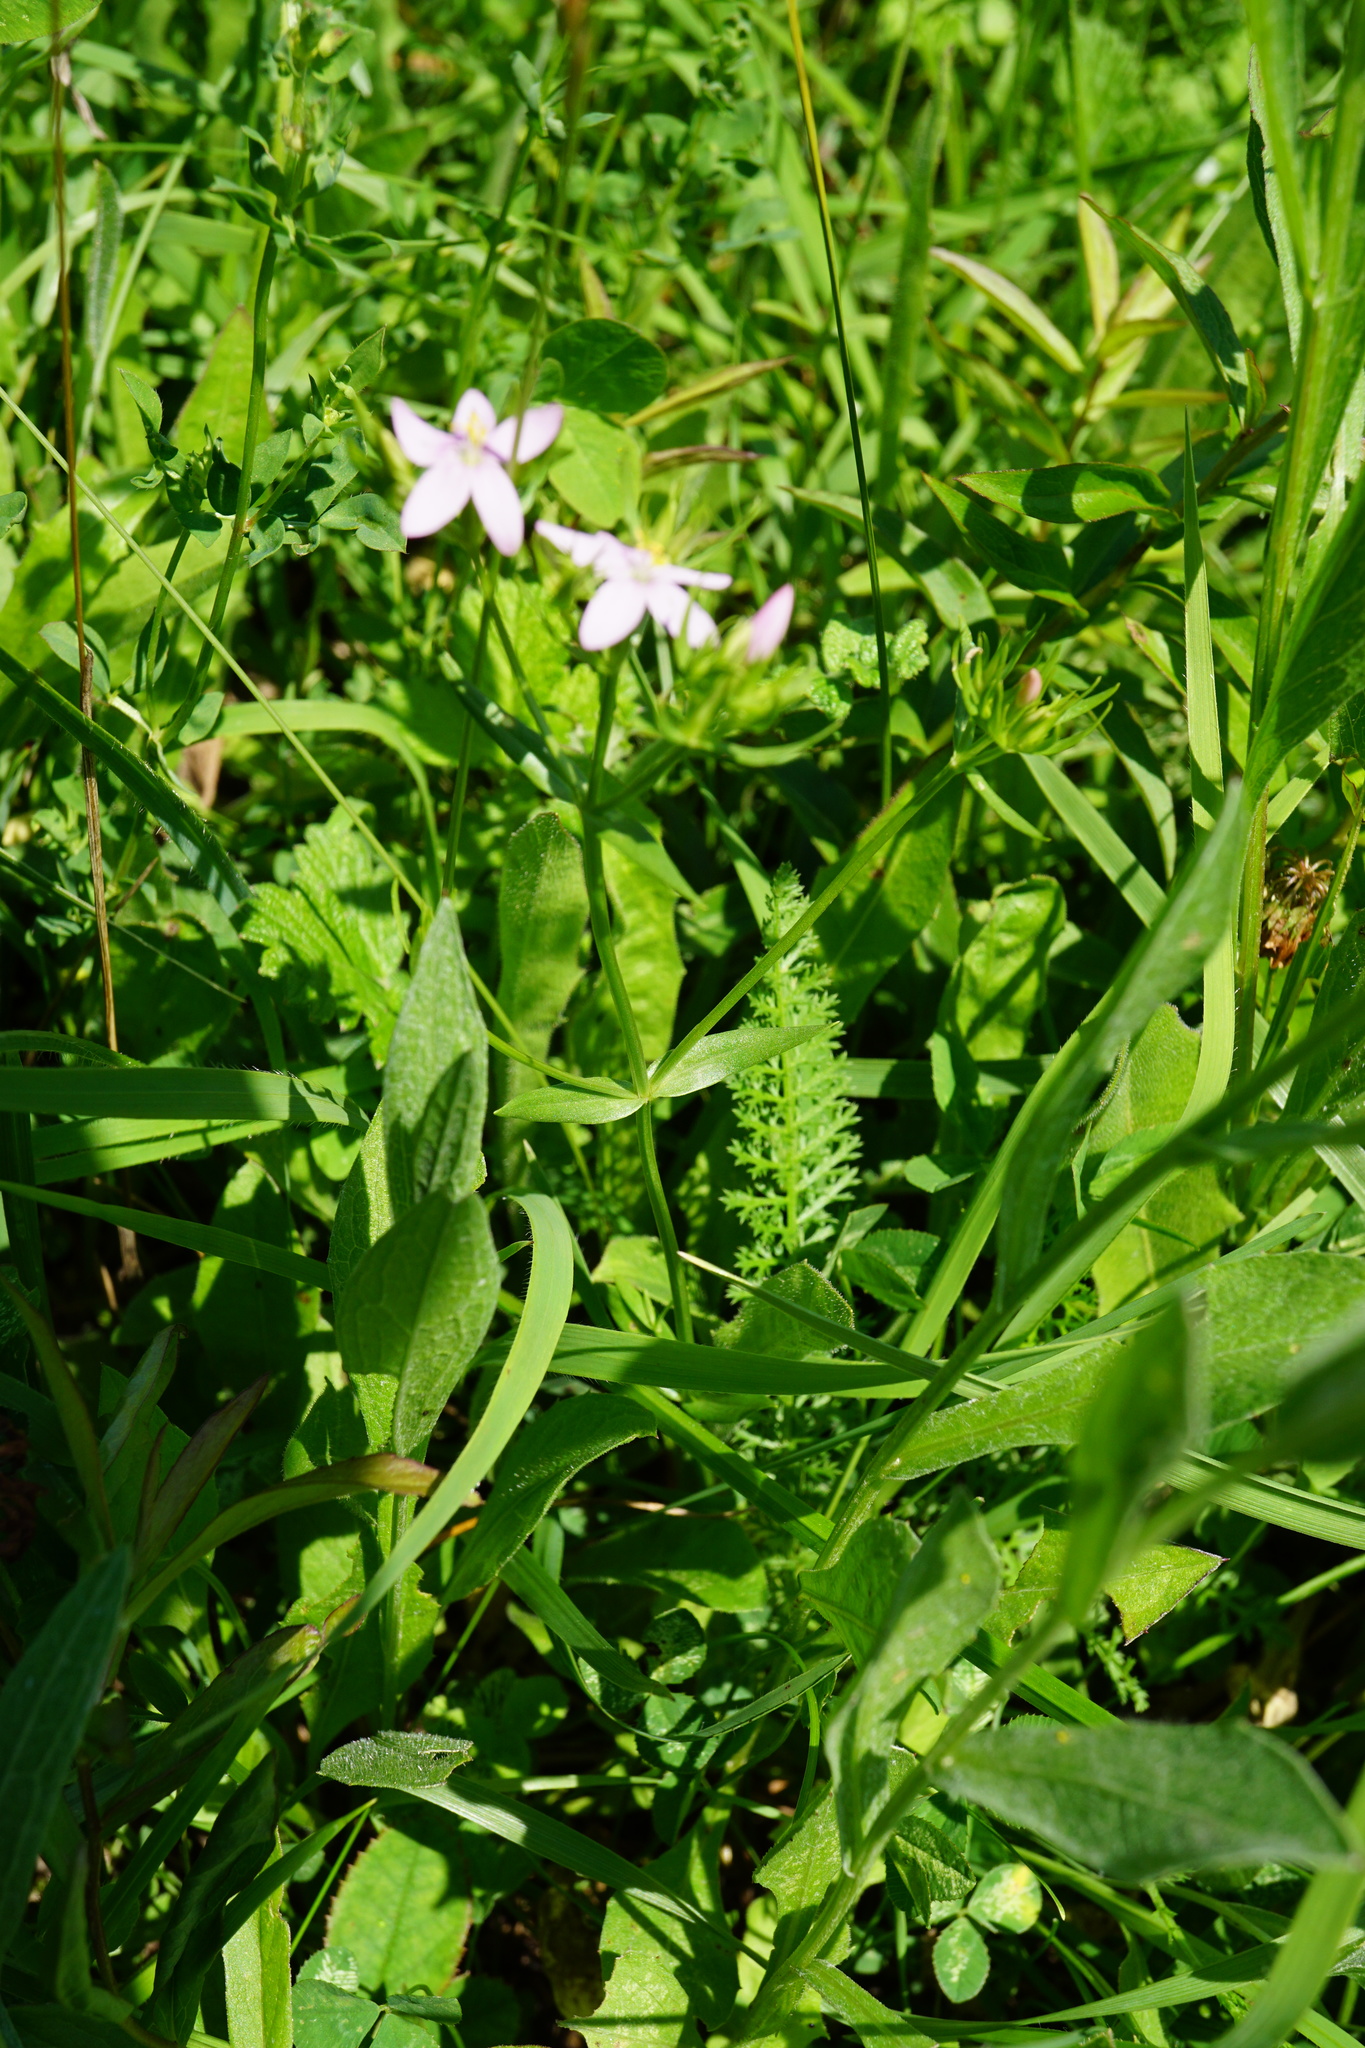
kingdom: Plantae
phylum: Tracheophyta
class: Magnoliopsida
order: Gentianales
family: Gentianaceae
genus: Centaurium
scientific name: Centaurium erythraea
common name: Common centaury
